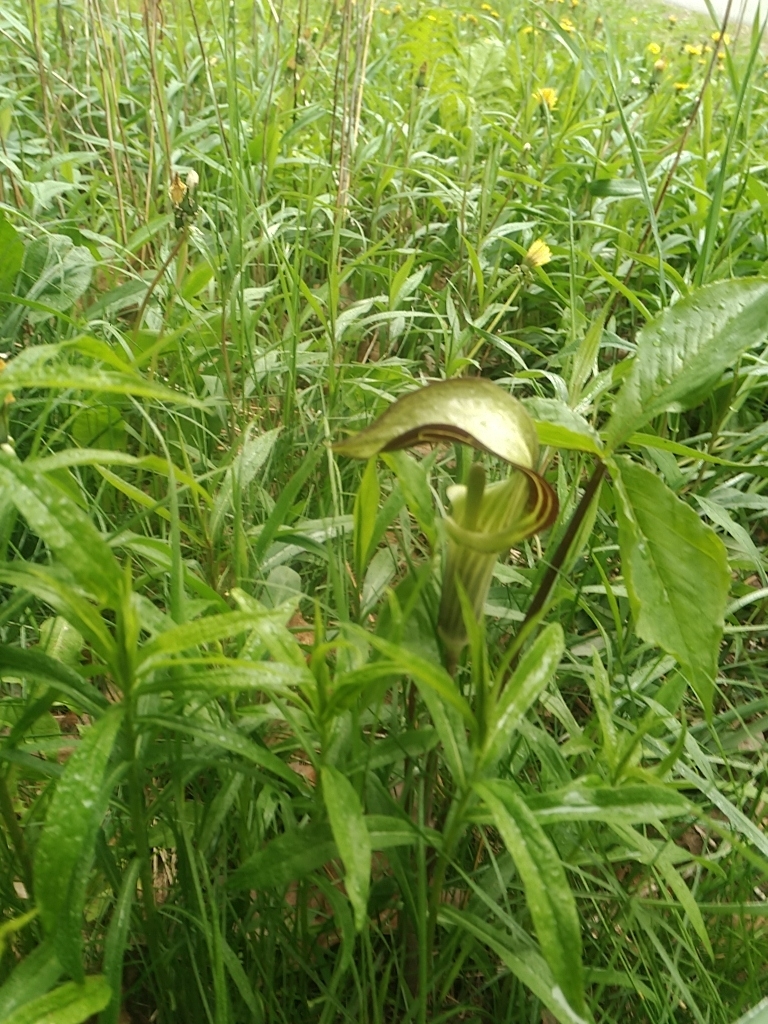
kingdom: Plantae
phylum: Tracheophyta
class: Liliopsida
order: Alismatales
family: Araceae
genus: Arisaema
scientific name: Arisaema triphyllum
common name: Jack-in-the-pulpit
